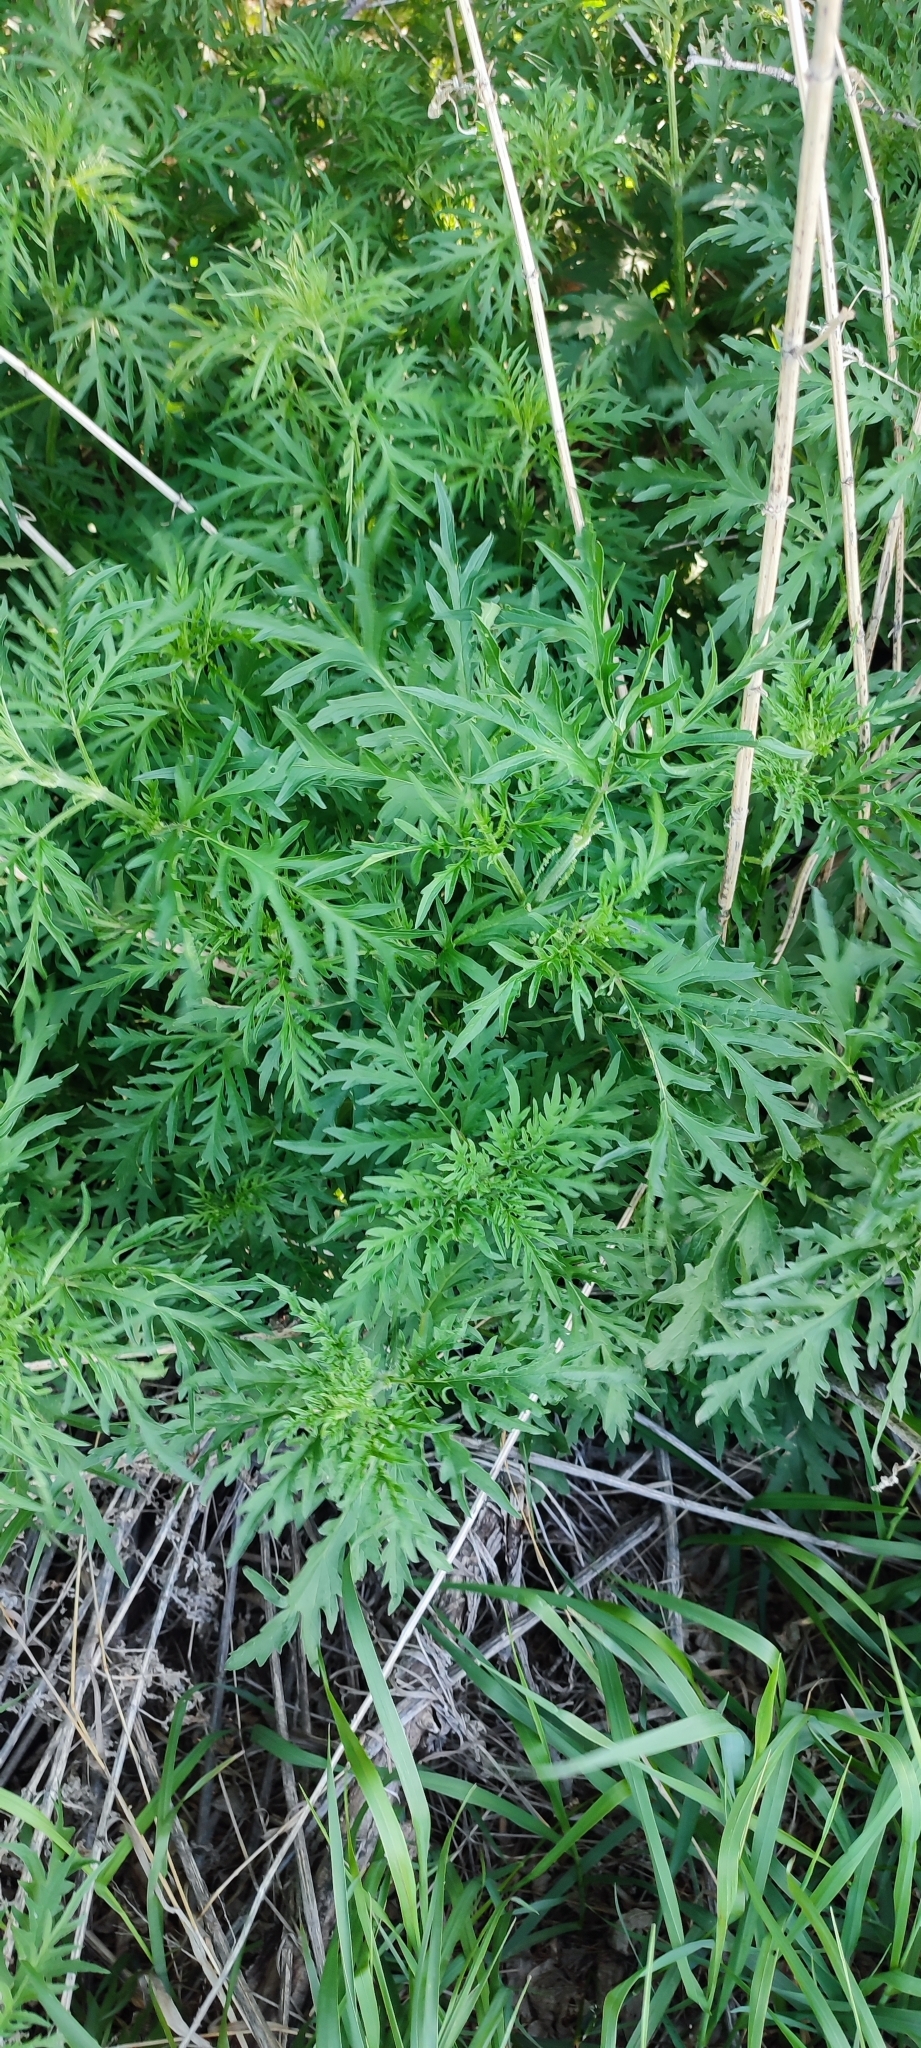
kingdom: Plantae
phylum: Tracheophyta
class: Magnoliopsida
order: Rosales
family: Urticaceae
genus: Urtica
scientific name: Urtica cannabina
